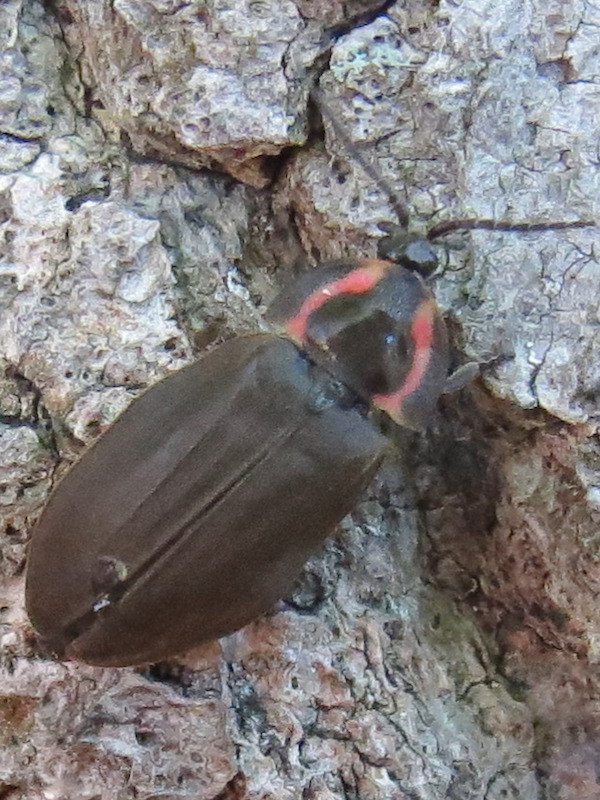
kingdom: Animalia
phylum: Arthropoda
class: Insecta
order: Coleoptera
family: Lampyridae
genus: Photinus
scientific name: Photinus corrusca
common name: Winter firefly
